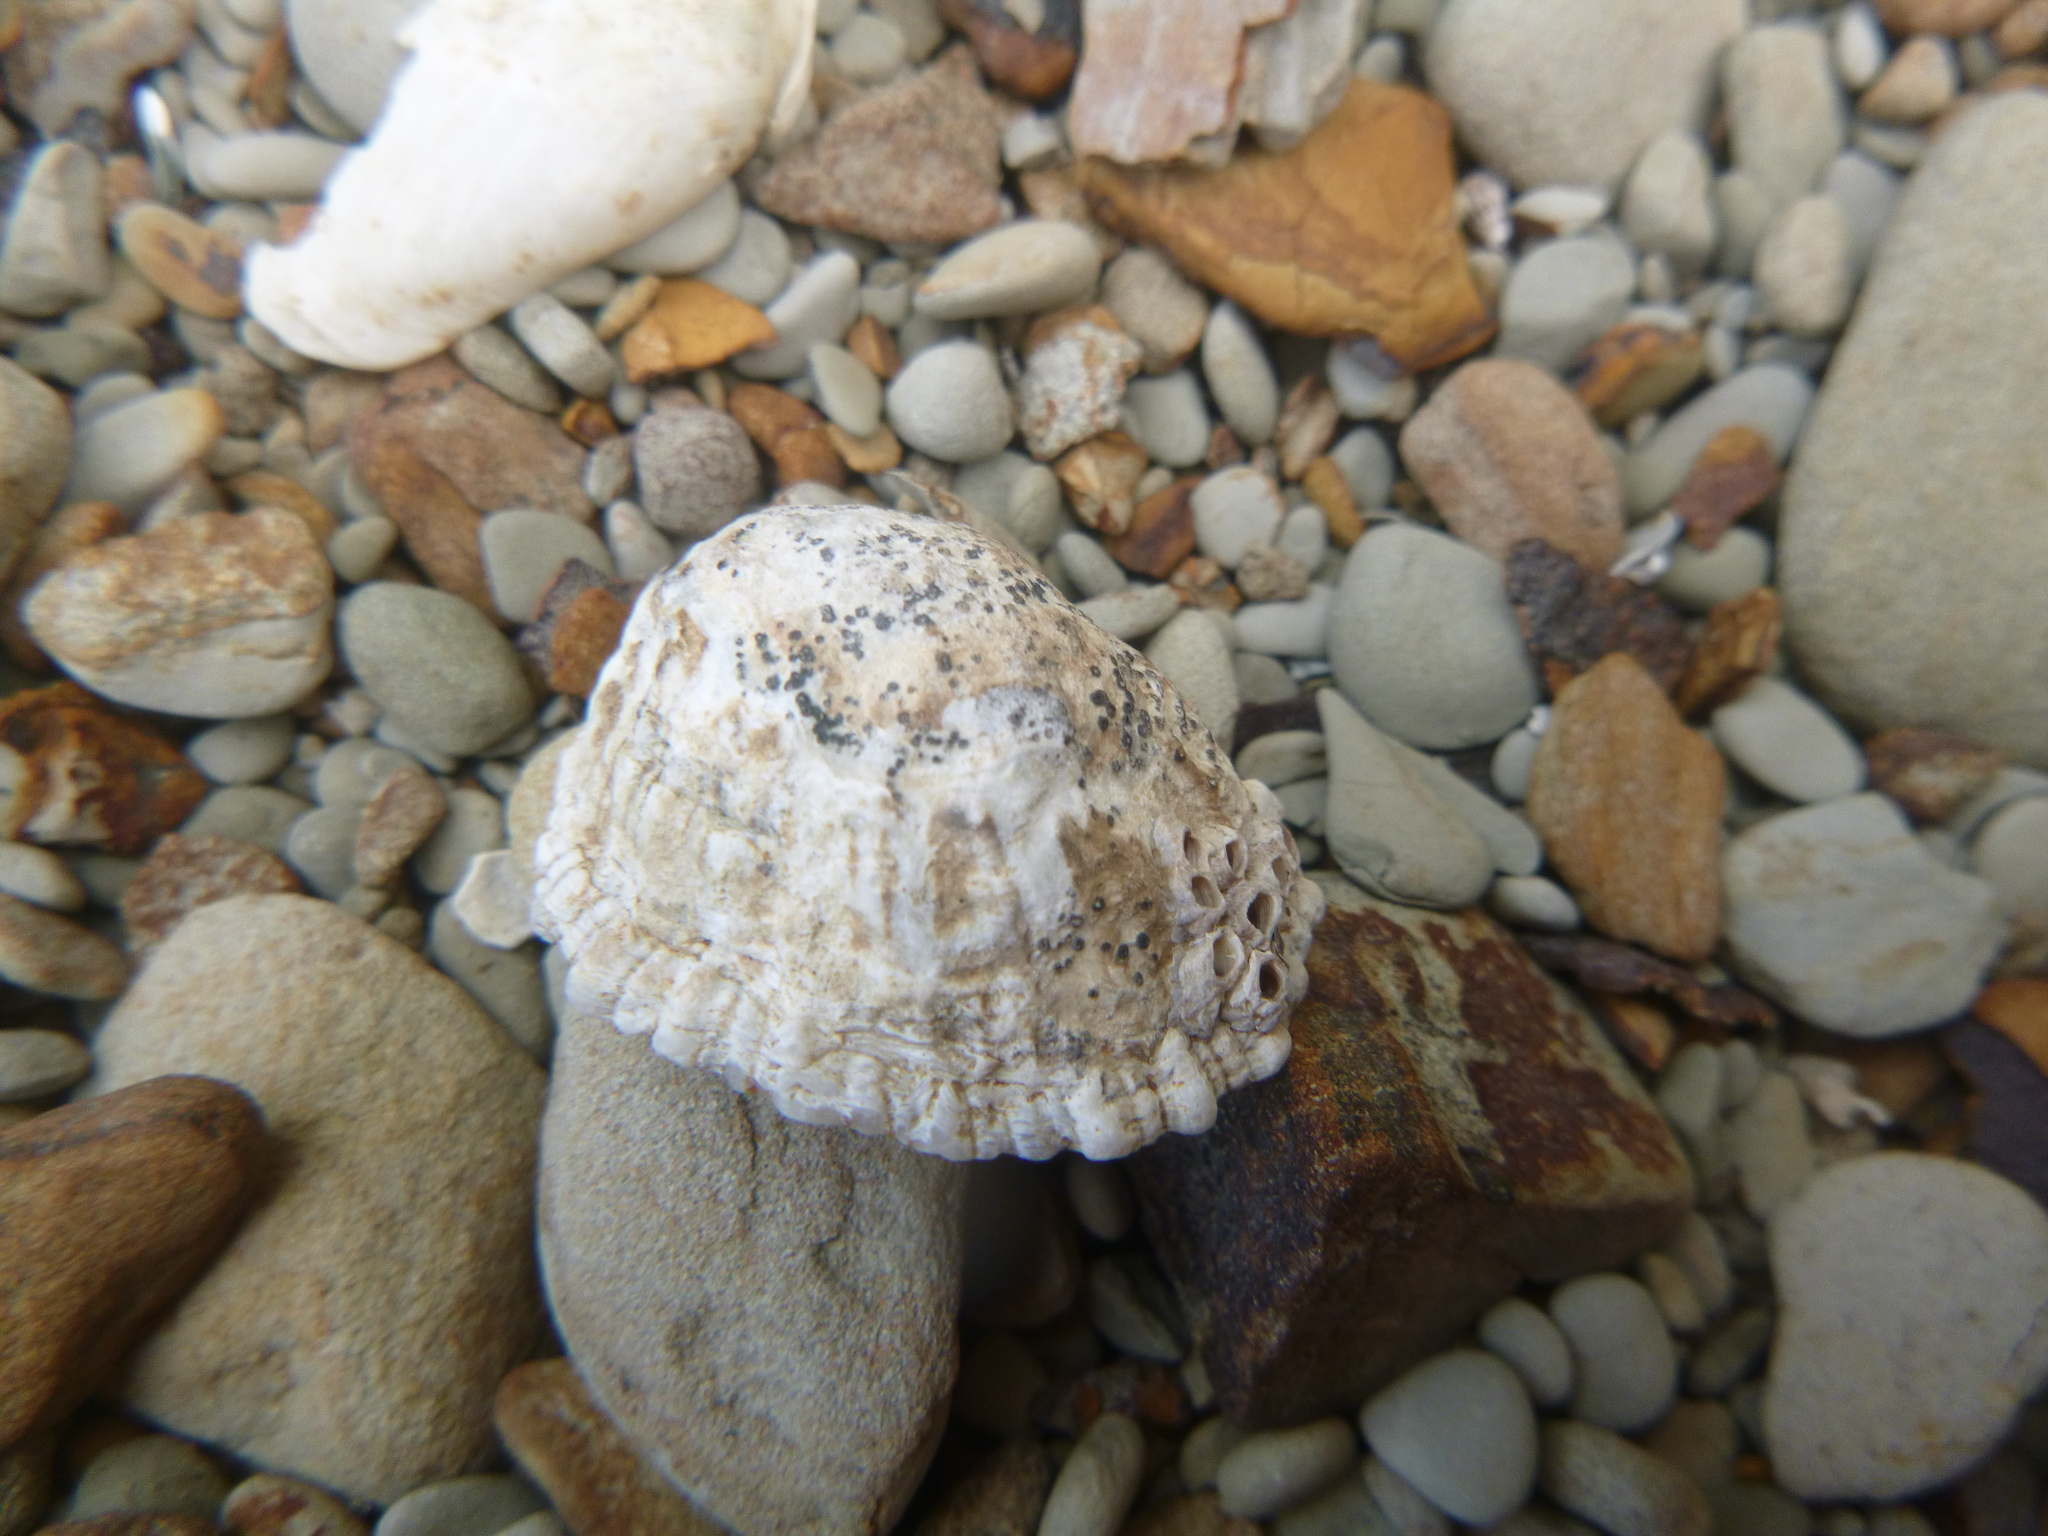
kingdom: Animalia
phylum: Mollusca
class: Gastropoda
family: Nacellidae
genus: Cellana
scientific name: Cellana ornata
